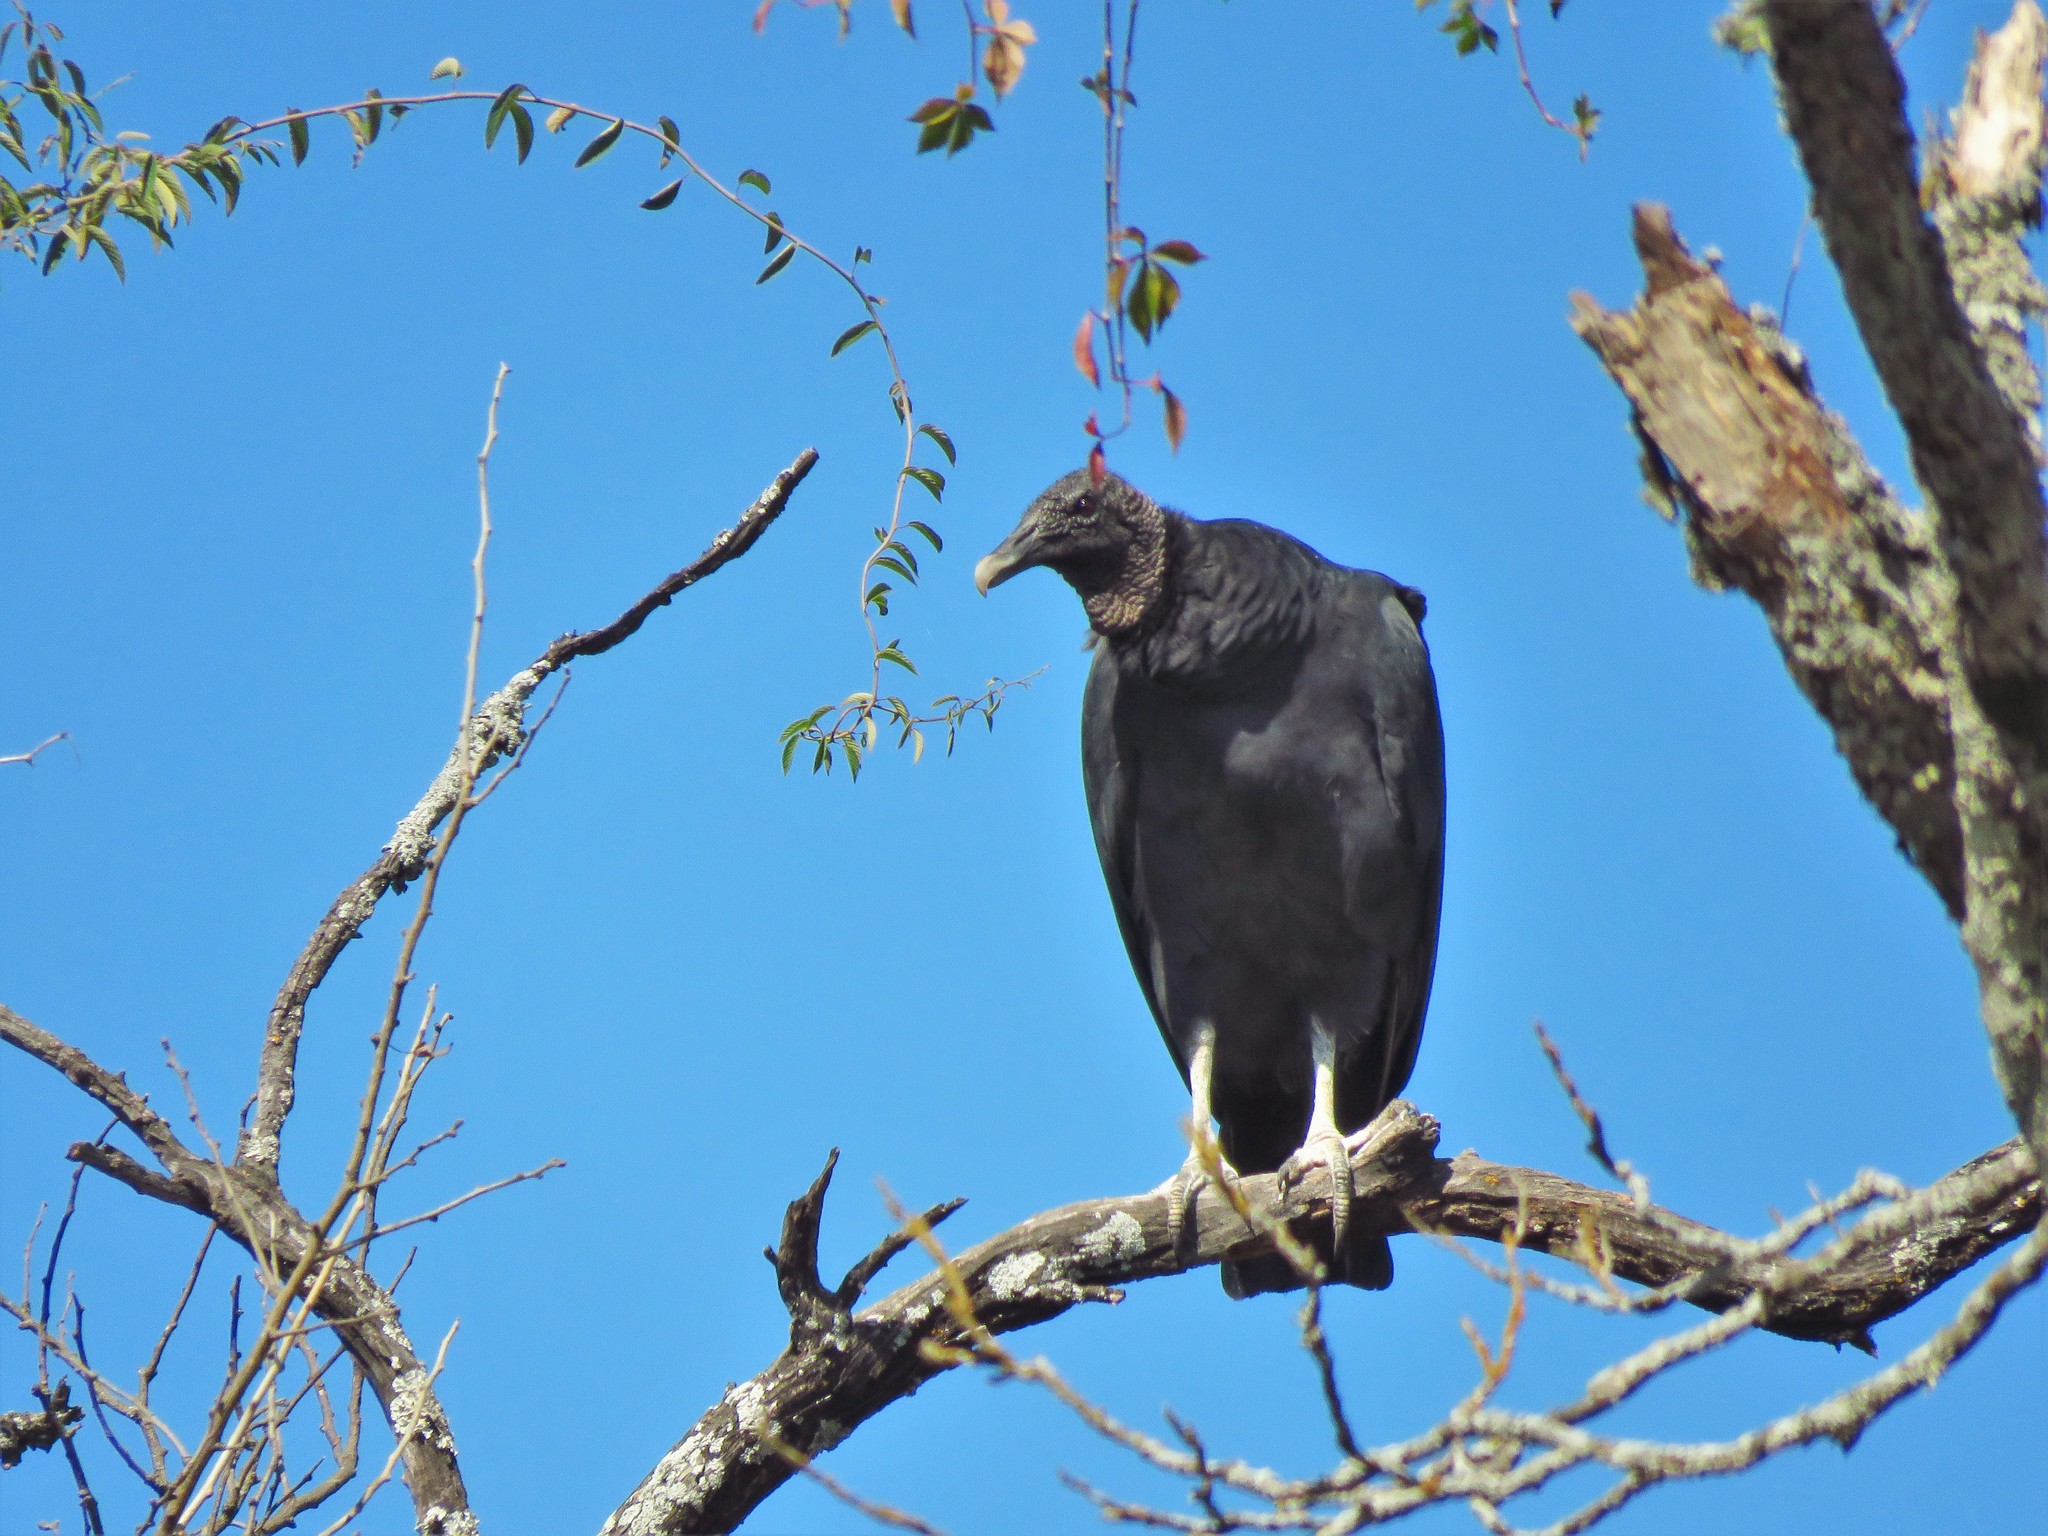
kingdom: Animalia
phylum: Chordata
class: Aves
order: Accipitriformes
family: Cathartidae
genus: Coragyps
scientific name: Coragyps atratus
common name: Black vulture
